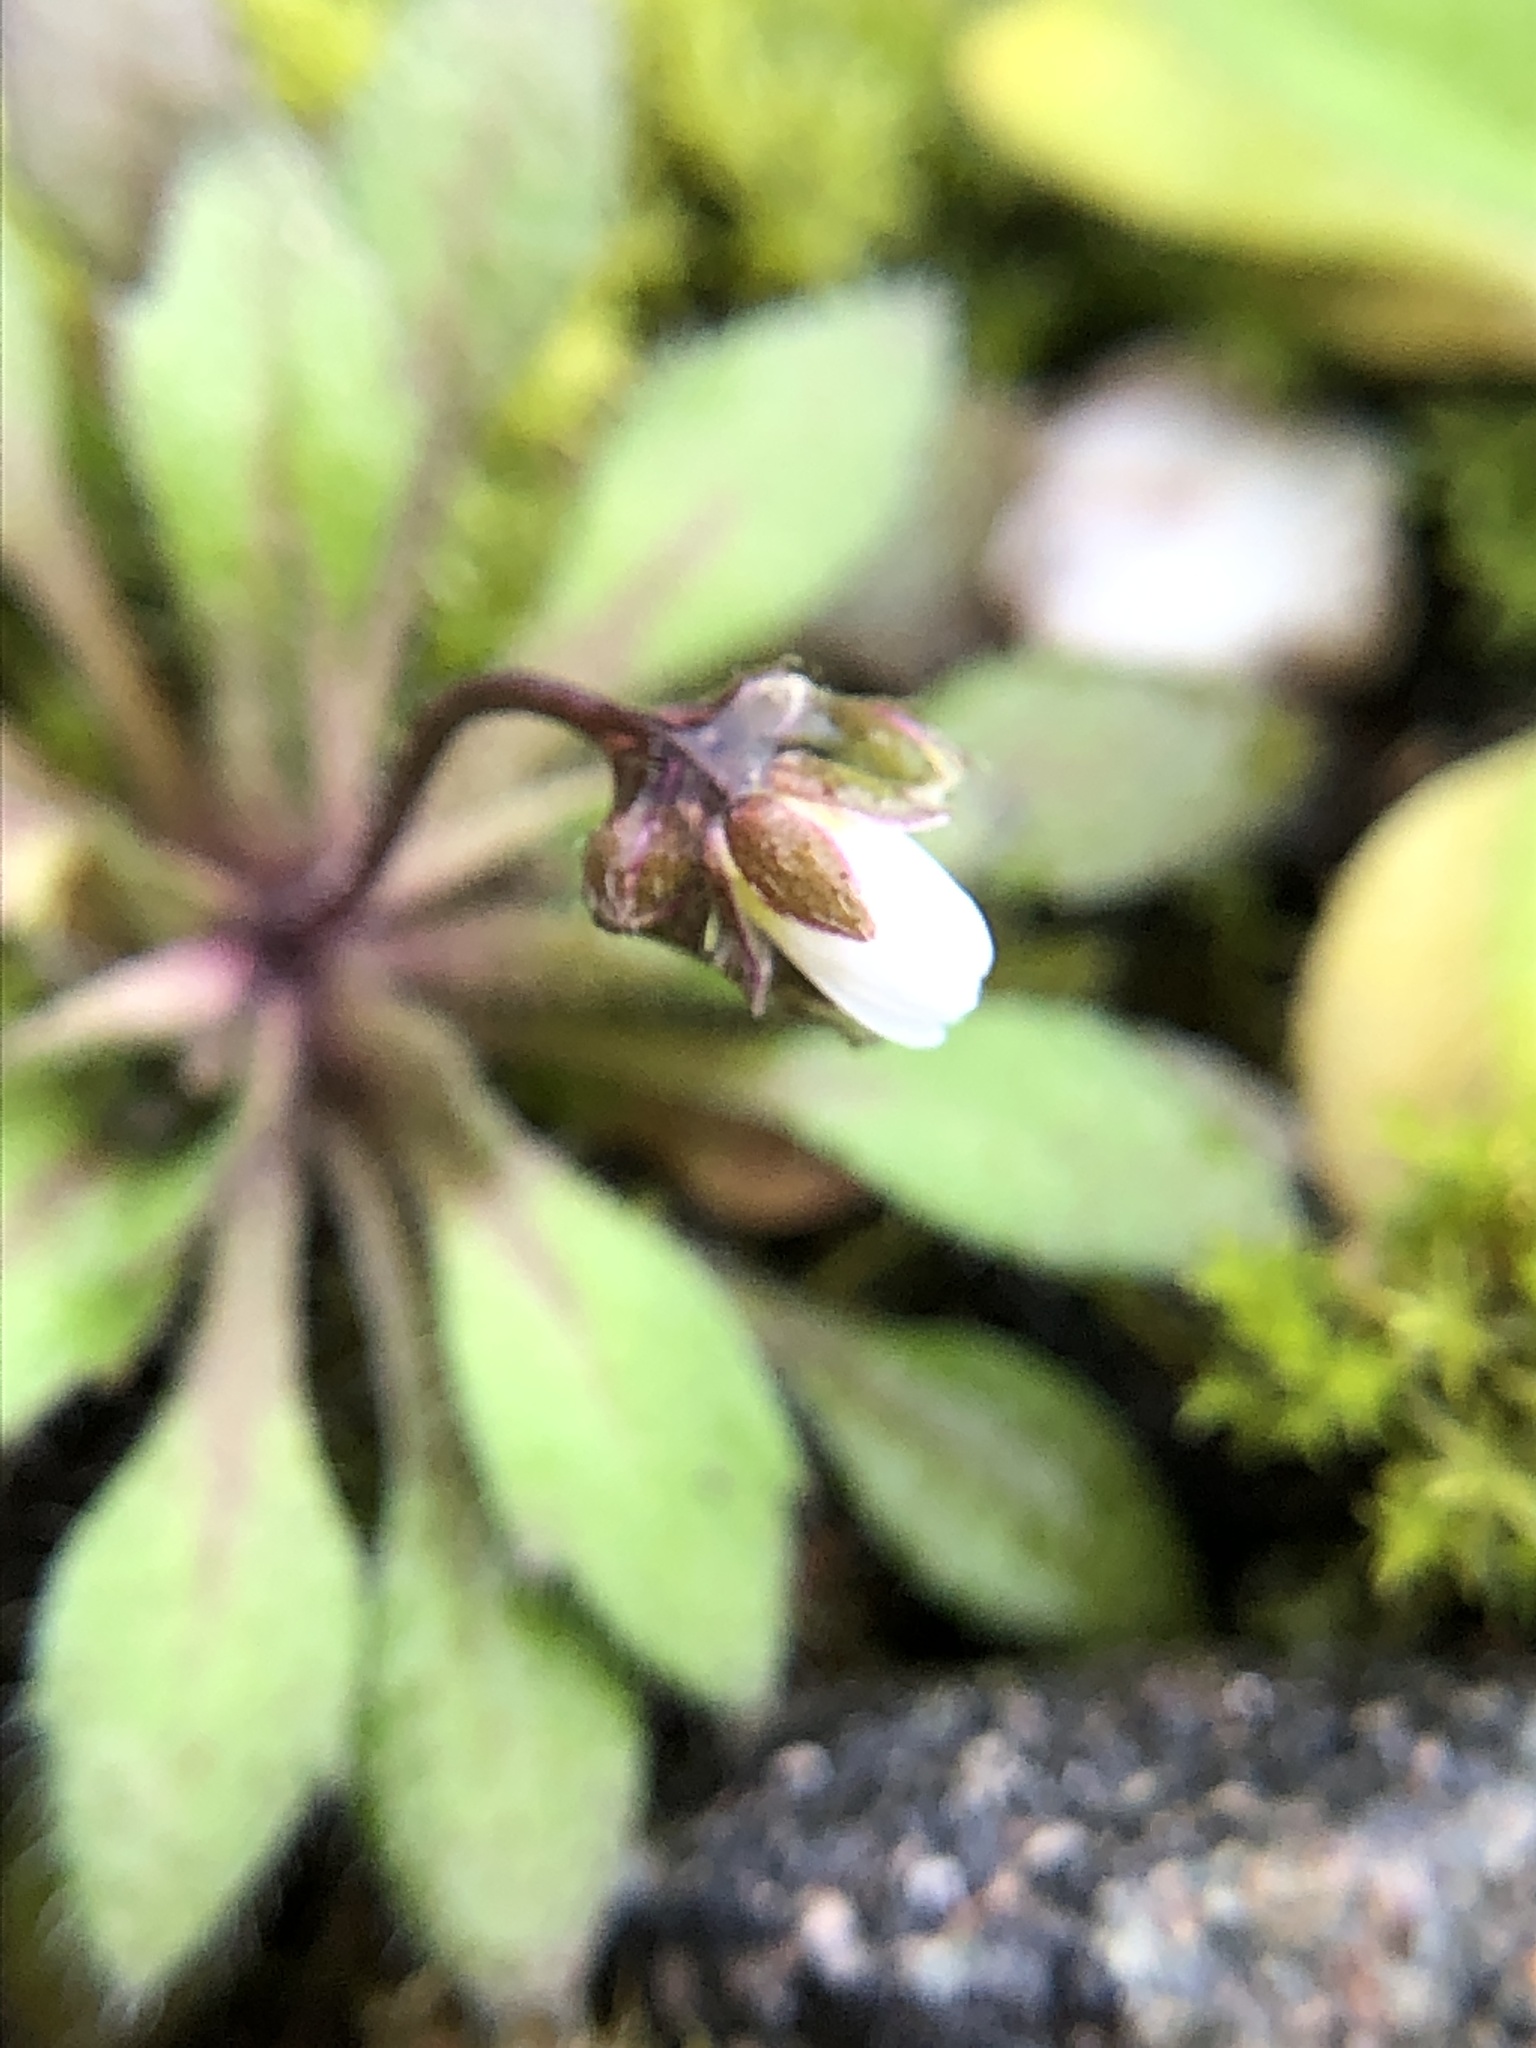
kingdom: Plantae
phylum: Tracheophyta
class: Magnoliopsida
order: Brassicales
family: Brassicaceae
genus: Draba
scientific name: Draba verna
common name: Spring draba
